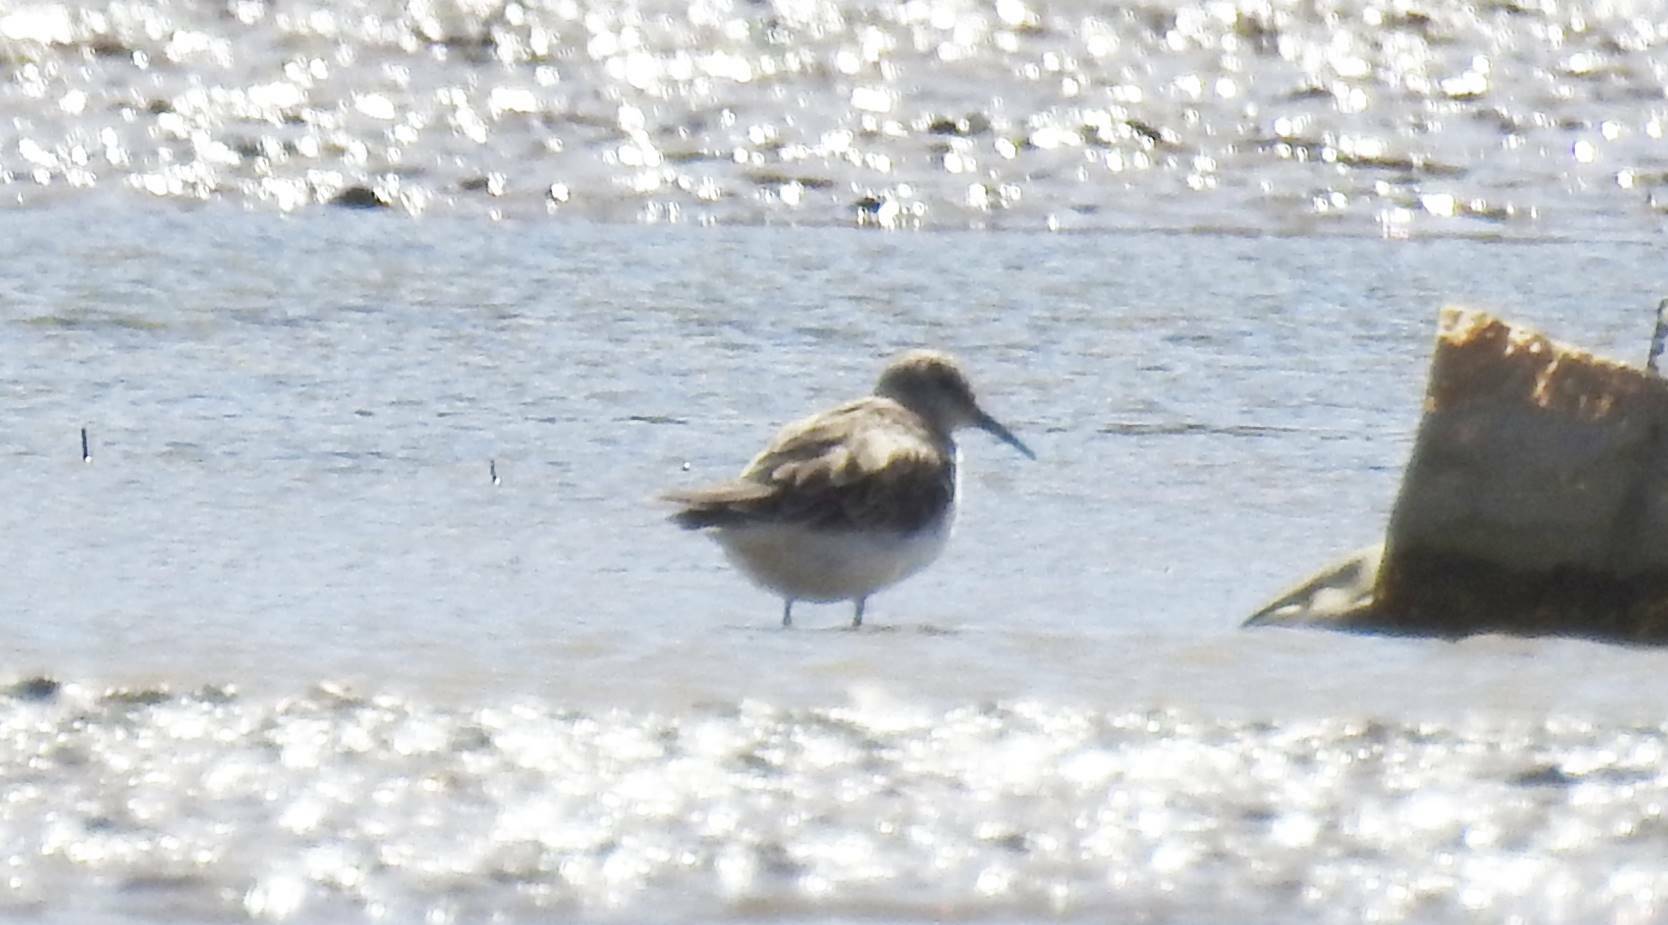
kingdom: Animalia
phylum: Chordata
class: Aves
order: Charadriiformes
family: Scolopacidae
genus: Calidris
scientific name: Calidris minuta
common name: Little stint
